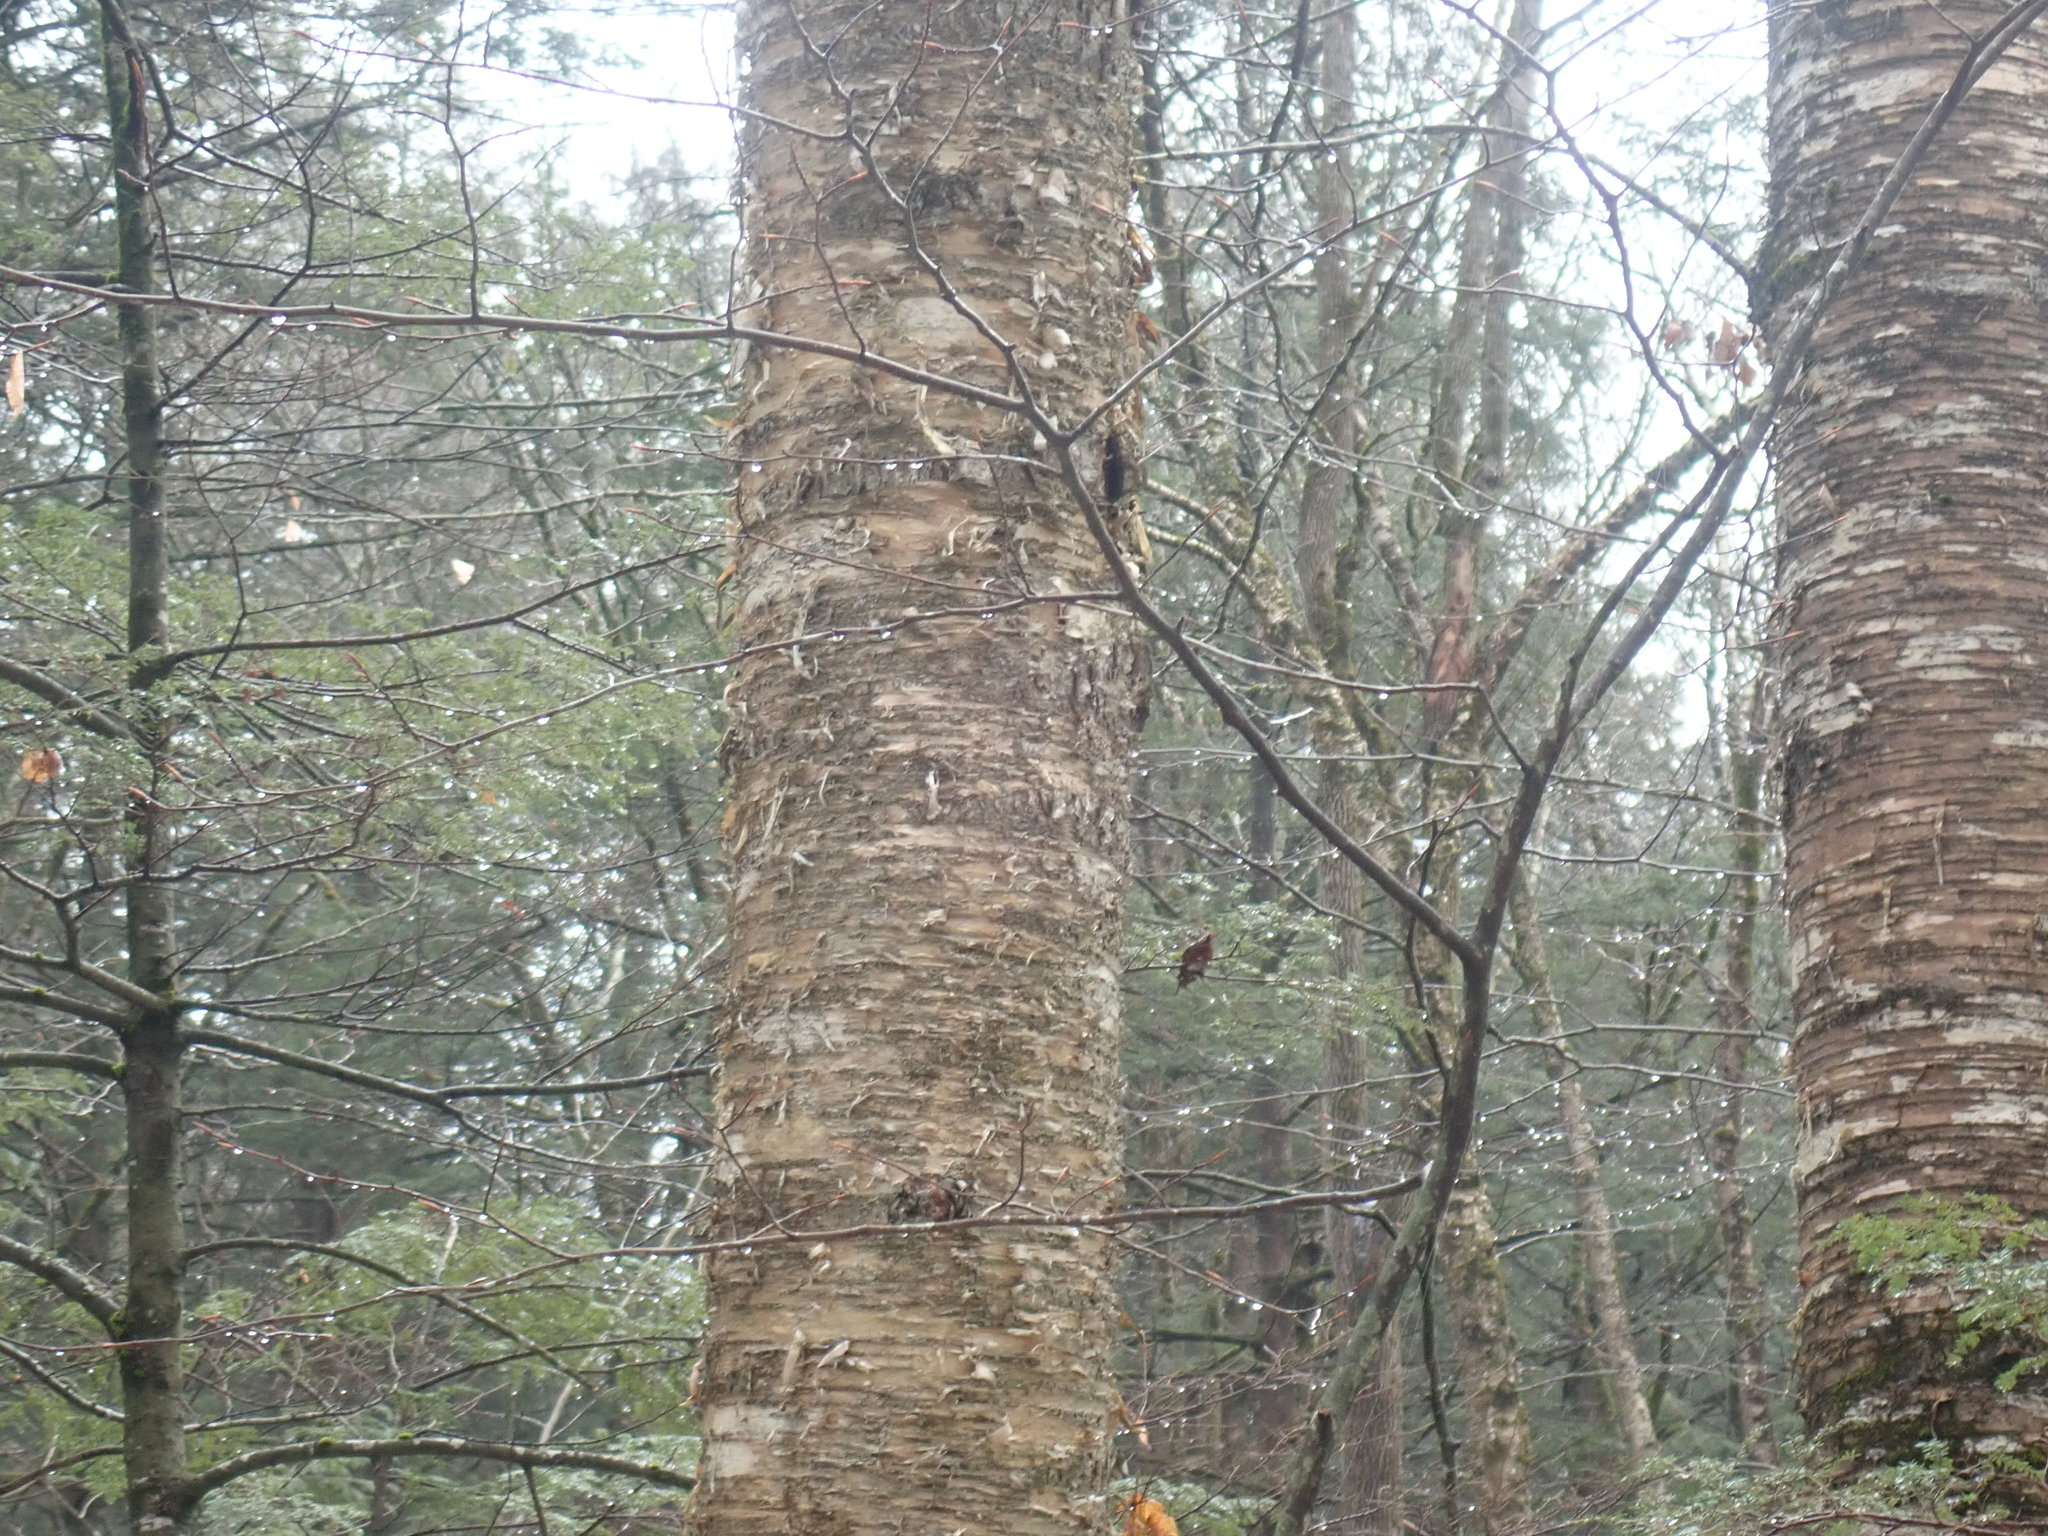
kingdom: Plantae
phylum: Tracheophyta
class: Magnoliopsida
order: Fagales
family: Betulaceae
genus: Betula
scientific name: Betula alleghaniensis
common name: Yellow birch
